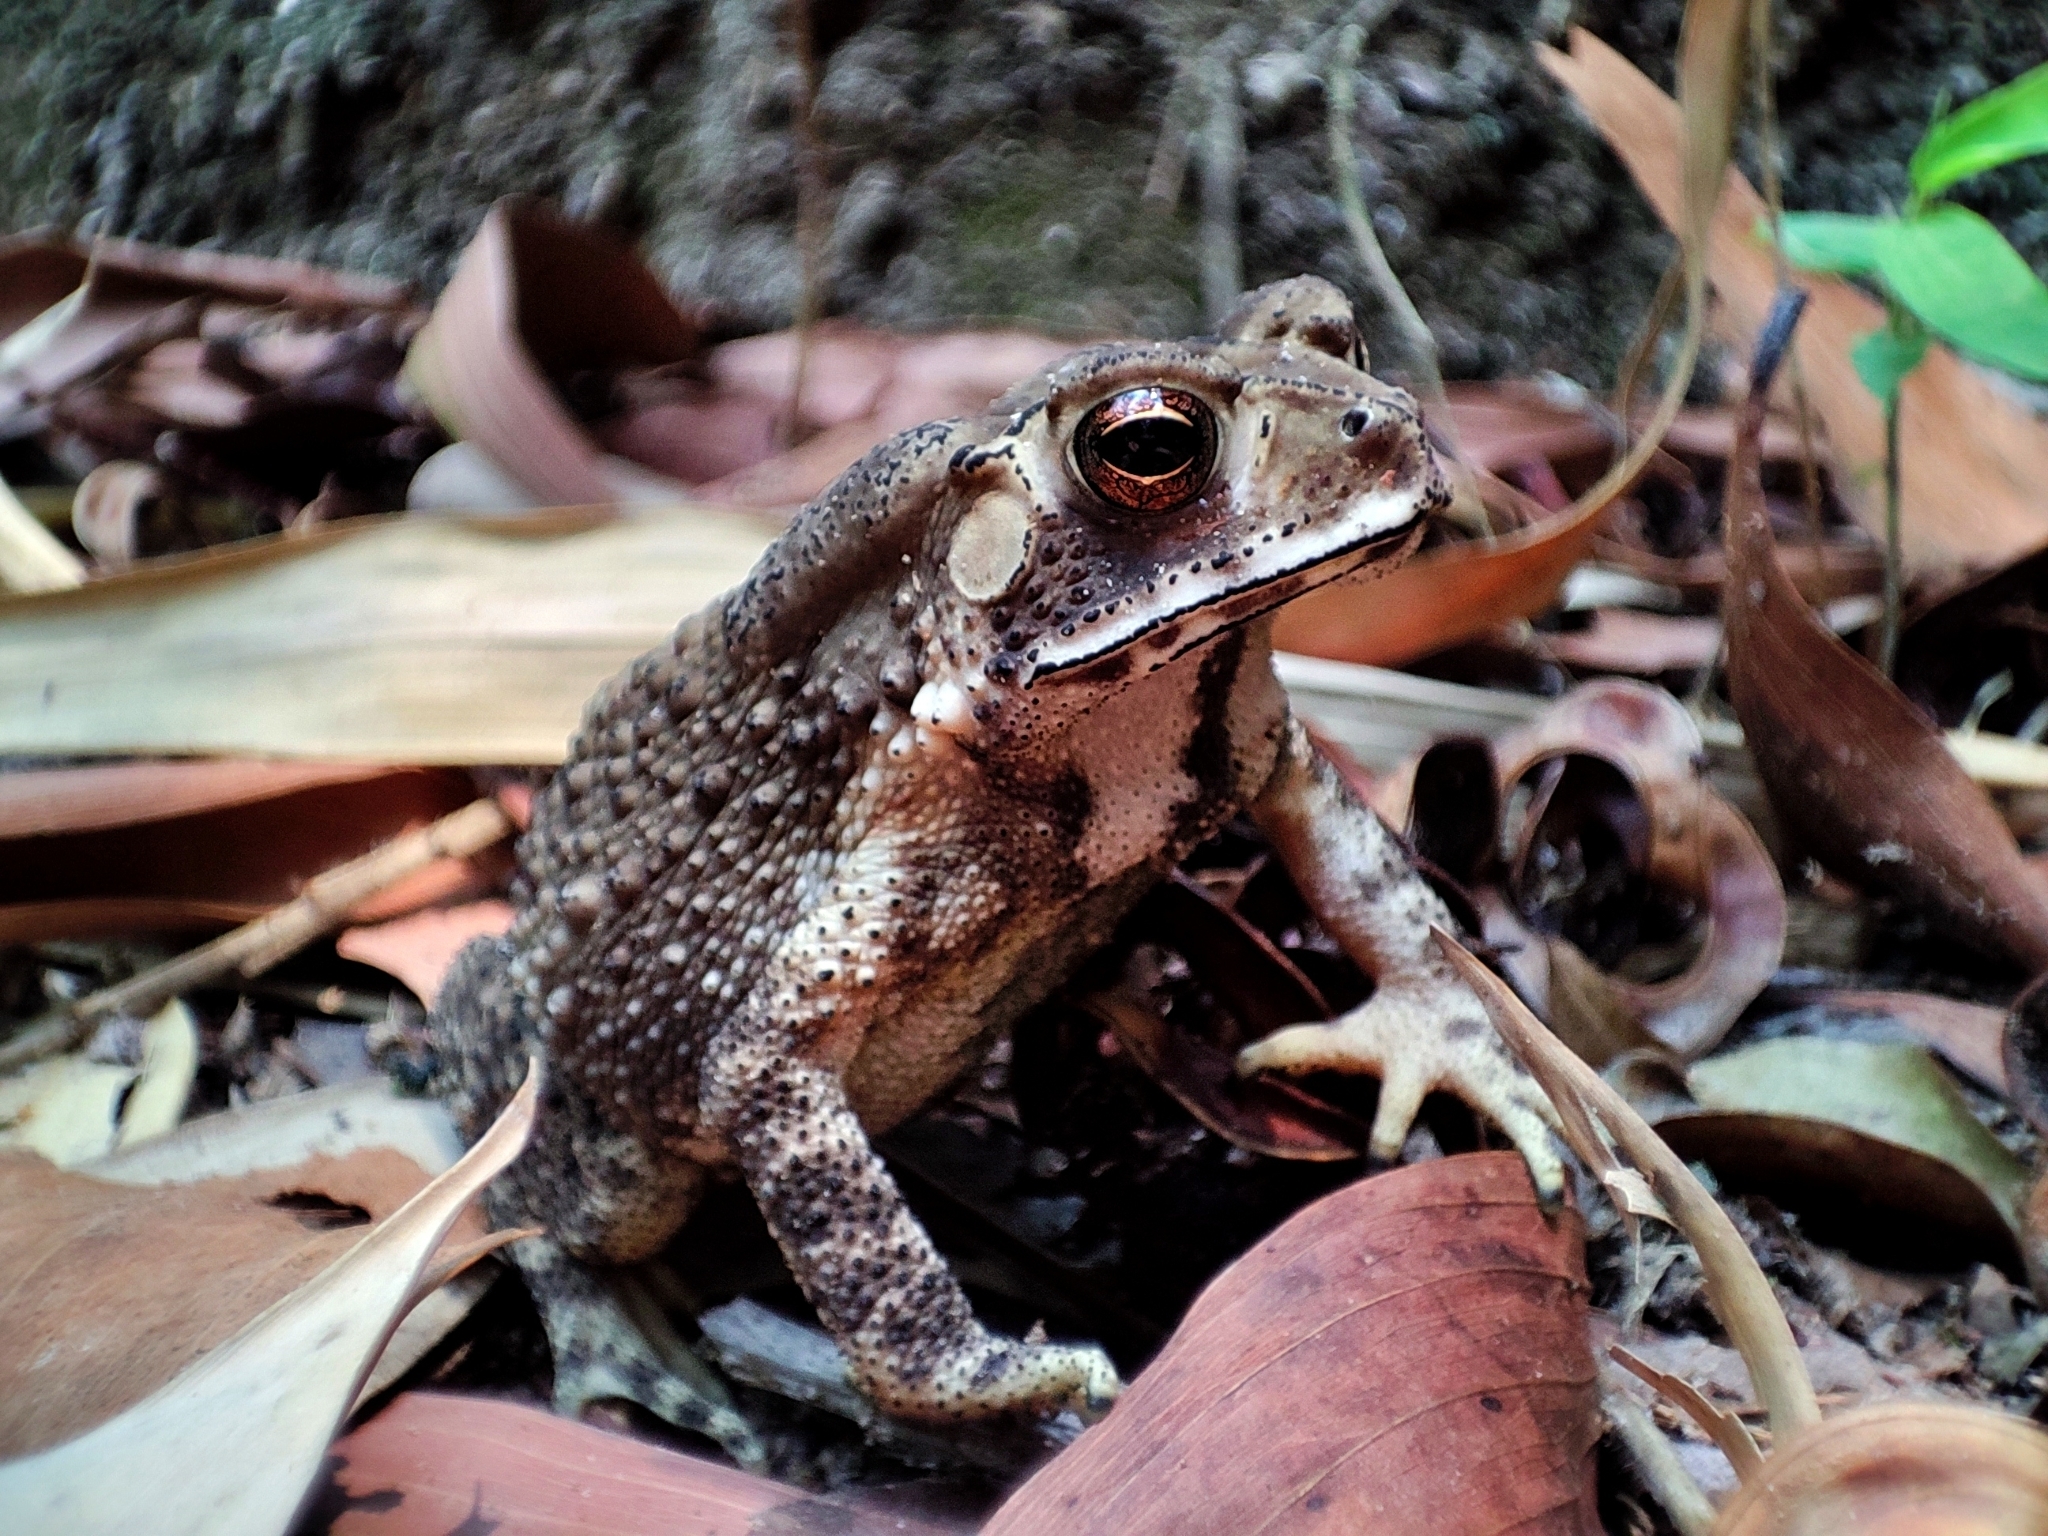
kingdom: Animalia
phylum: Chordata
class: Amphibia
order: Anura
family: Bufonidae
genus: Duttaphrynus
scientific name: Duttaphrynus melanostictus
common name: Common sunda toad
